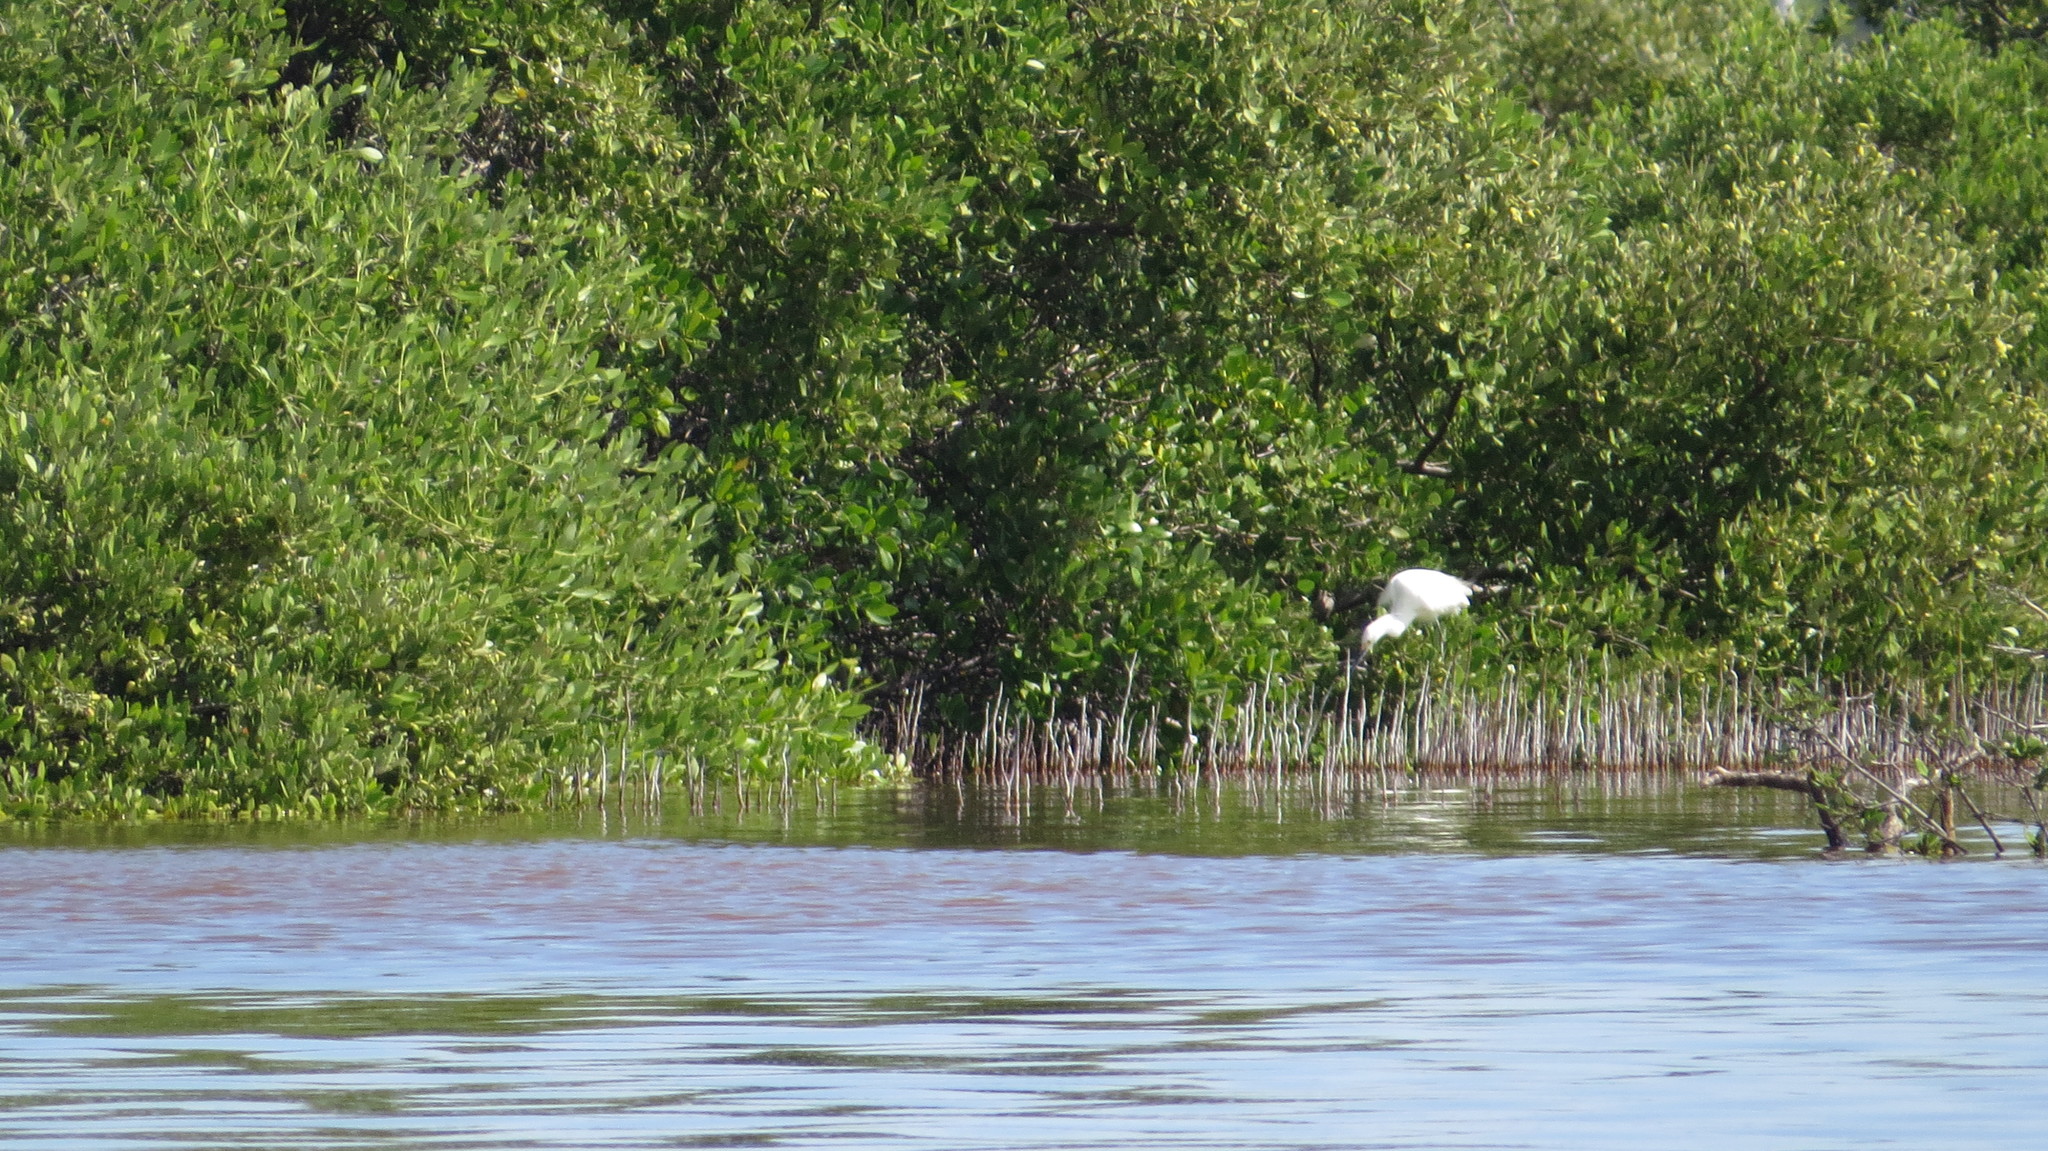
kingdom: Animalia
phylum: Chordata
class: Aves
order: Pelecaniformes
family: Ardeidae
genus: Egretta
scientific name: Egretta thula
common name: Snowy egret
